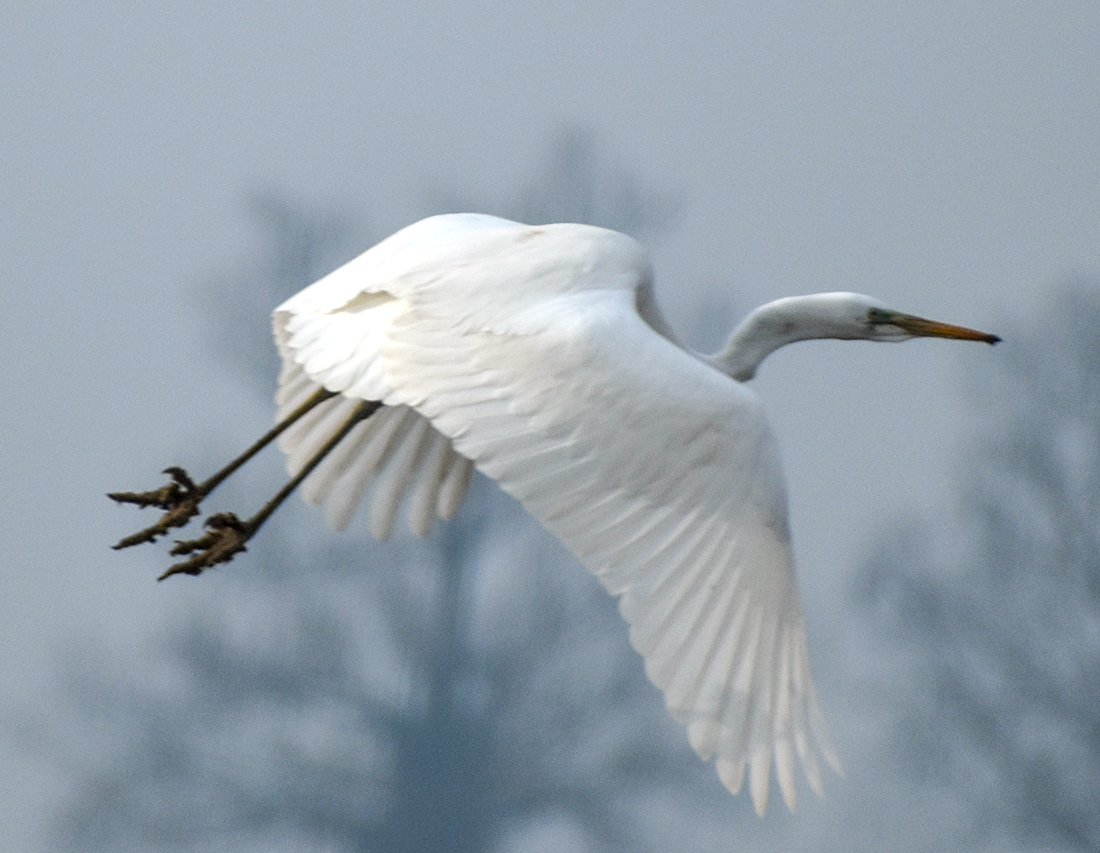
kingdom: Animalia
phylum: Chordata
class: Aves
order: Pelecaniformes
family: Ardeidae
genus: Ardea
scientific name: Ardea alba
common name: Great egret
